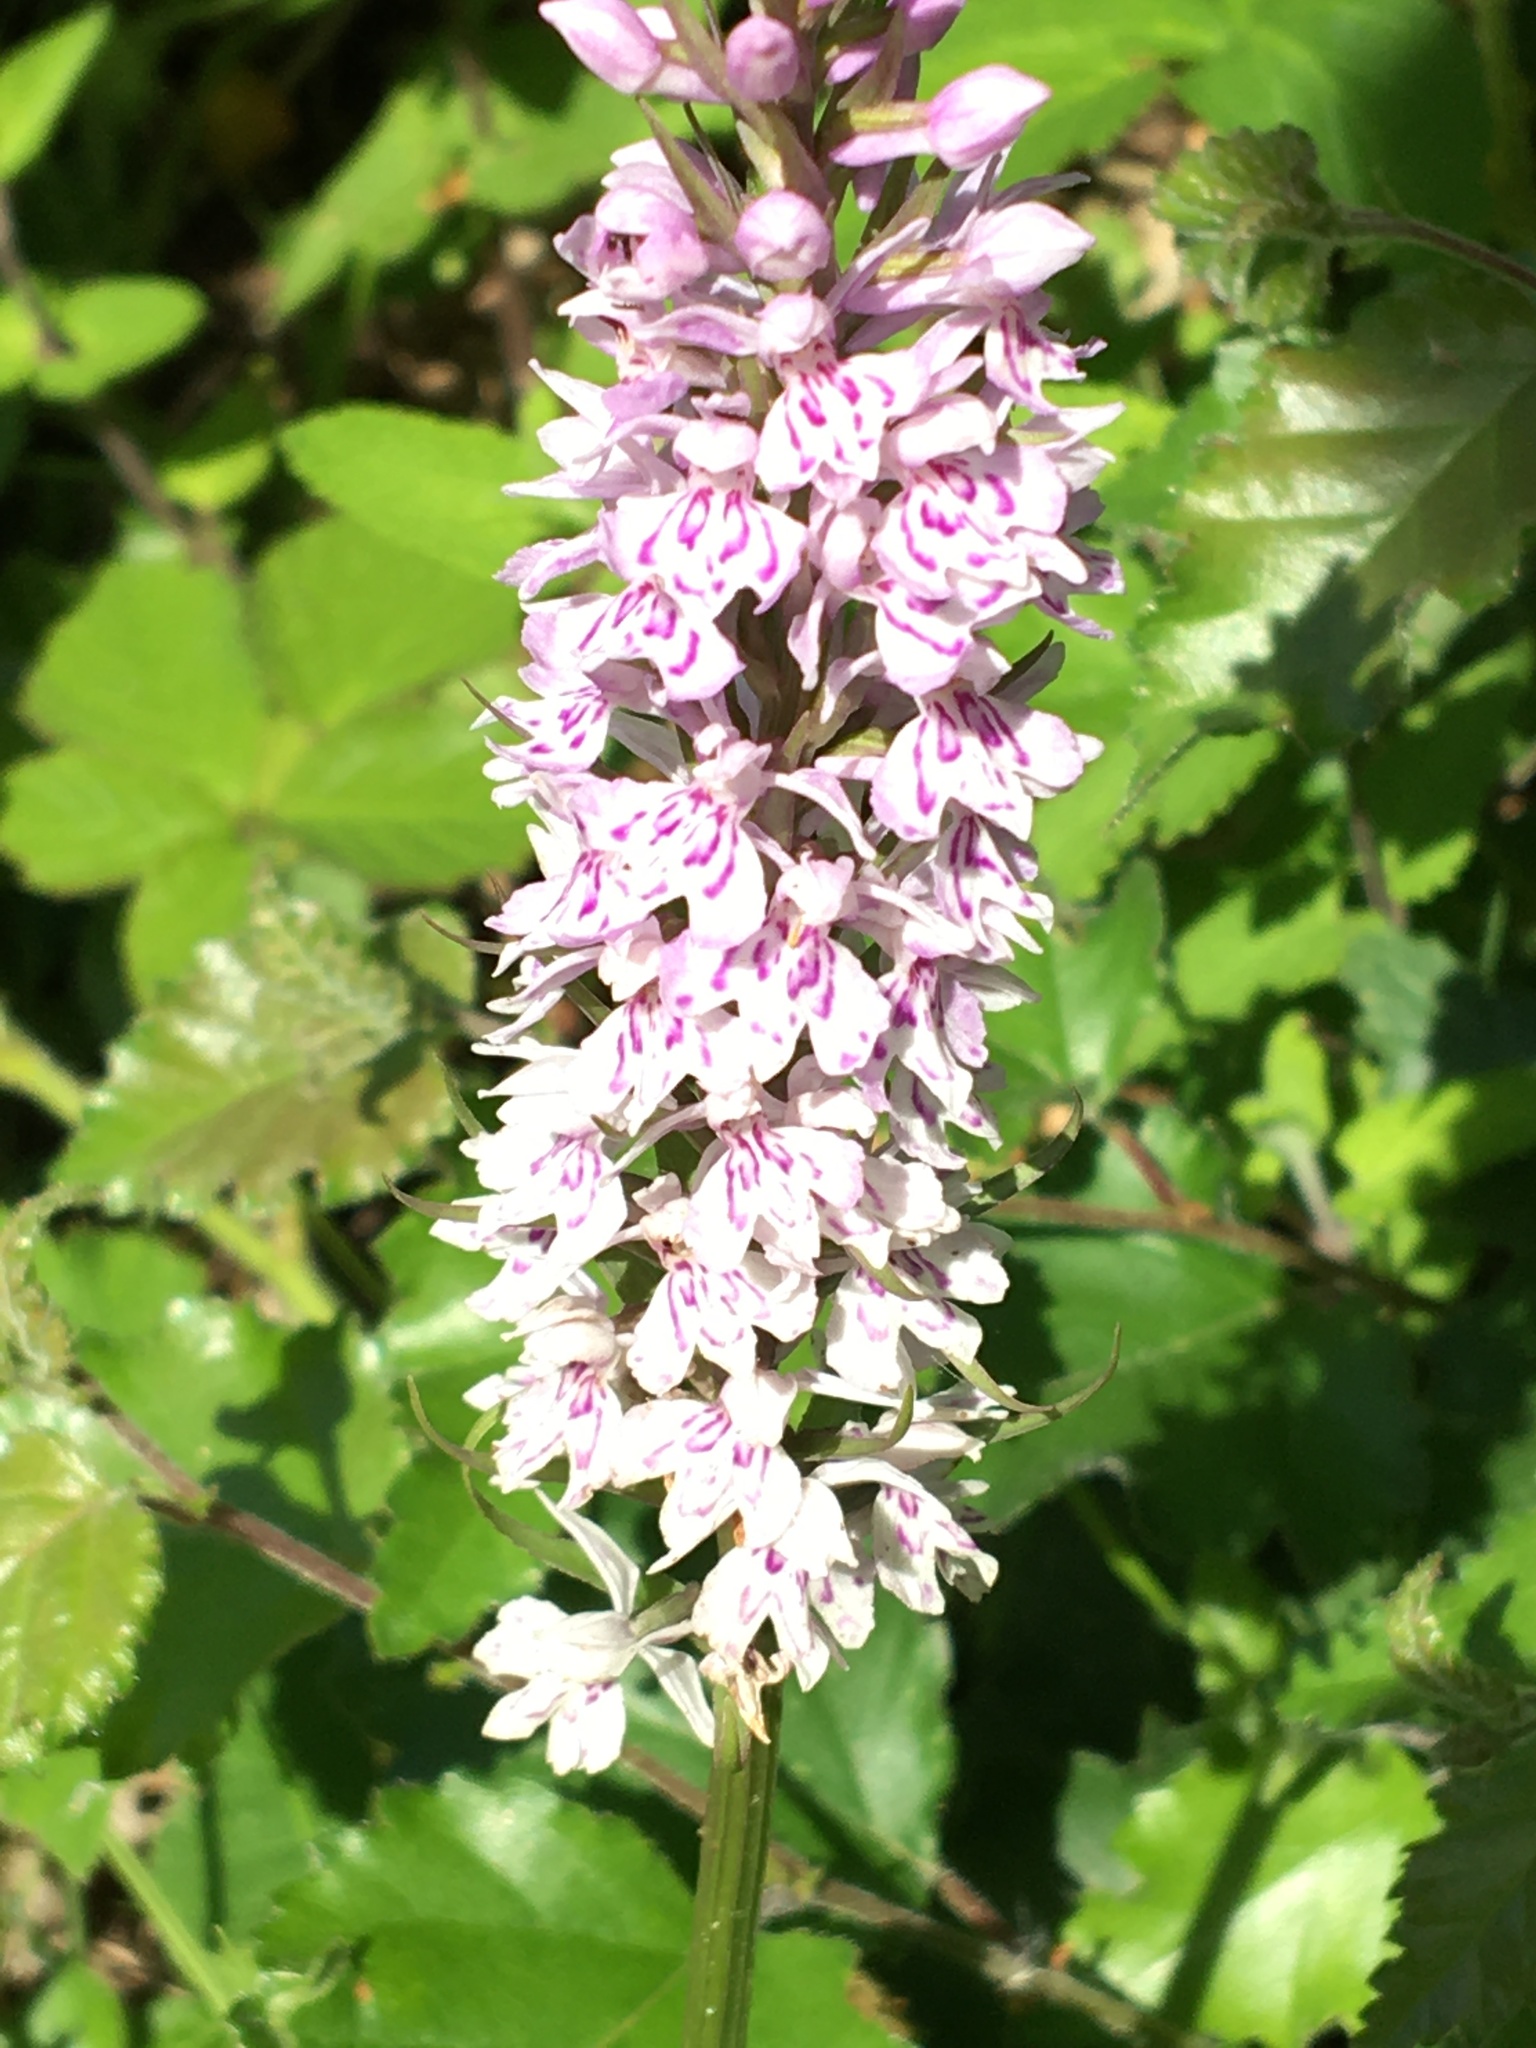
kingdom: Plantae
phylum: Tracheophyta
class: Liliopsida
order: Asparagales
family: Orchidaceae
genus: Dactylorhiza
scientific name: Dactylorhiza maculata
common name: Heath spotted-orchid
